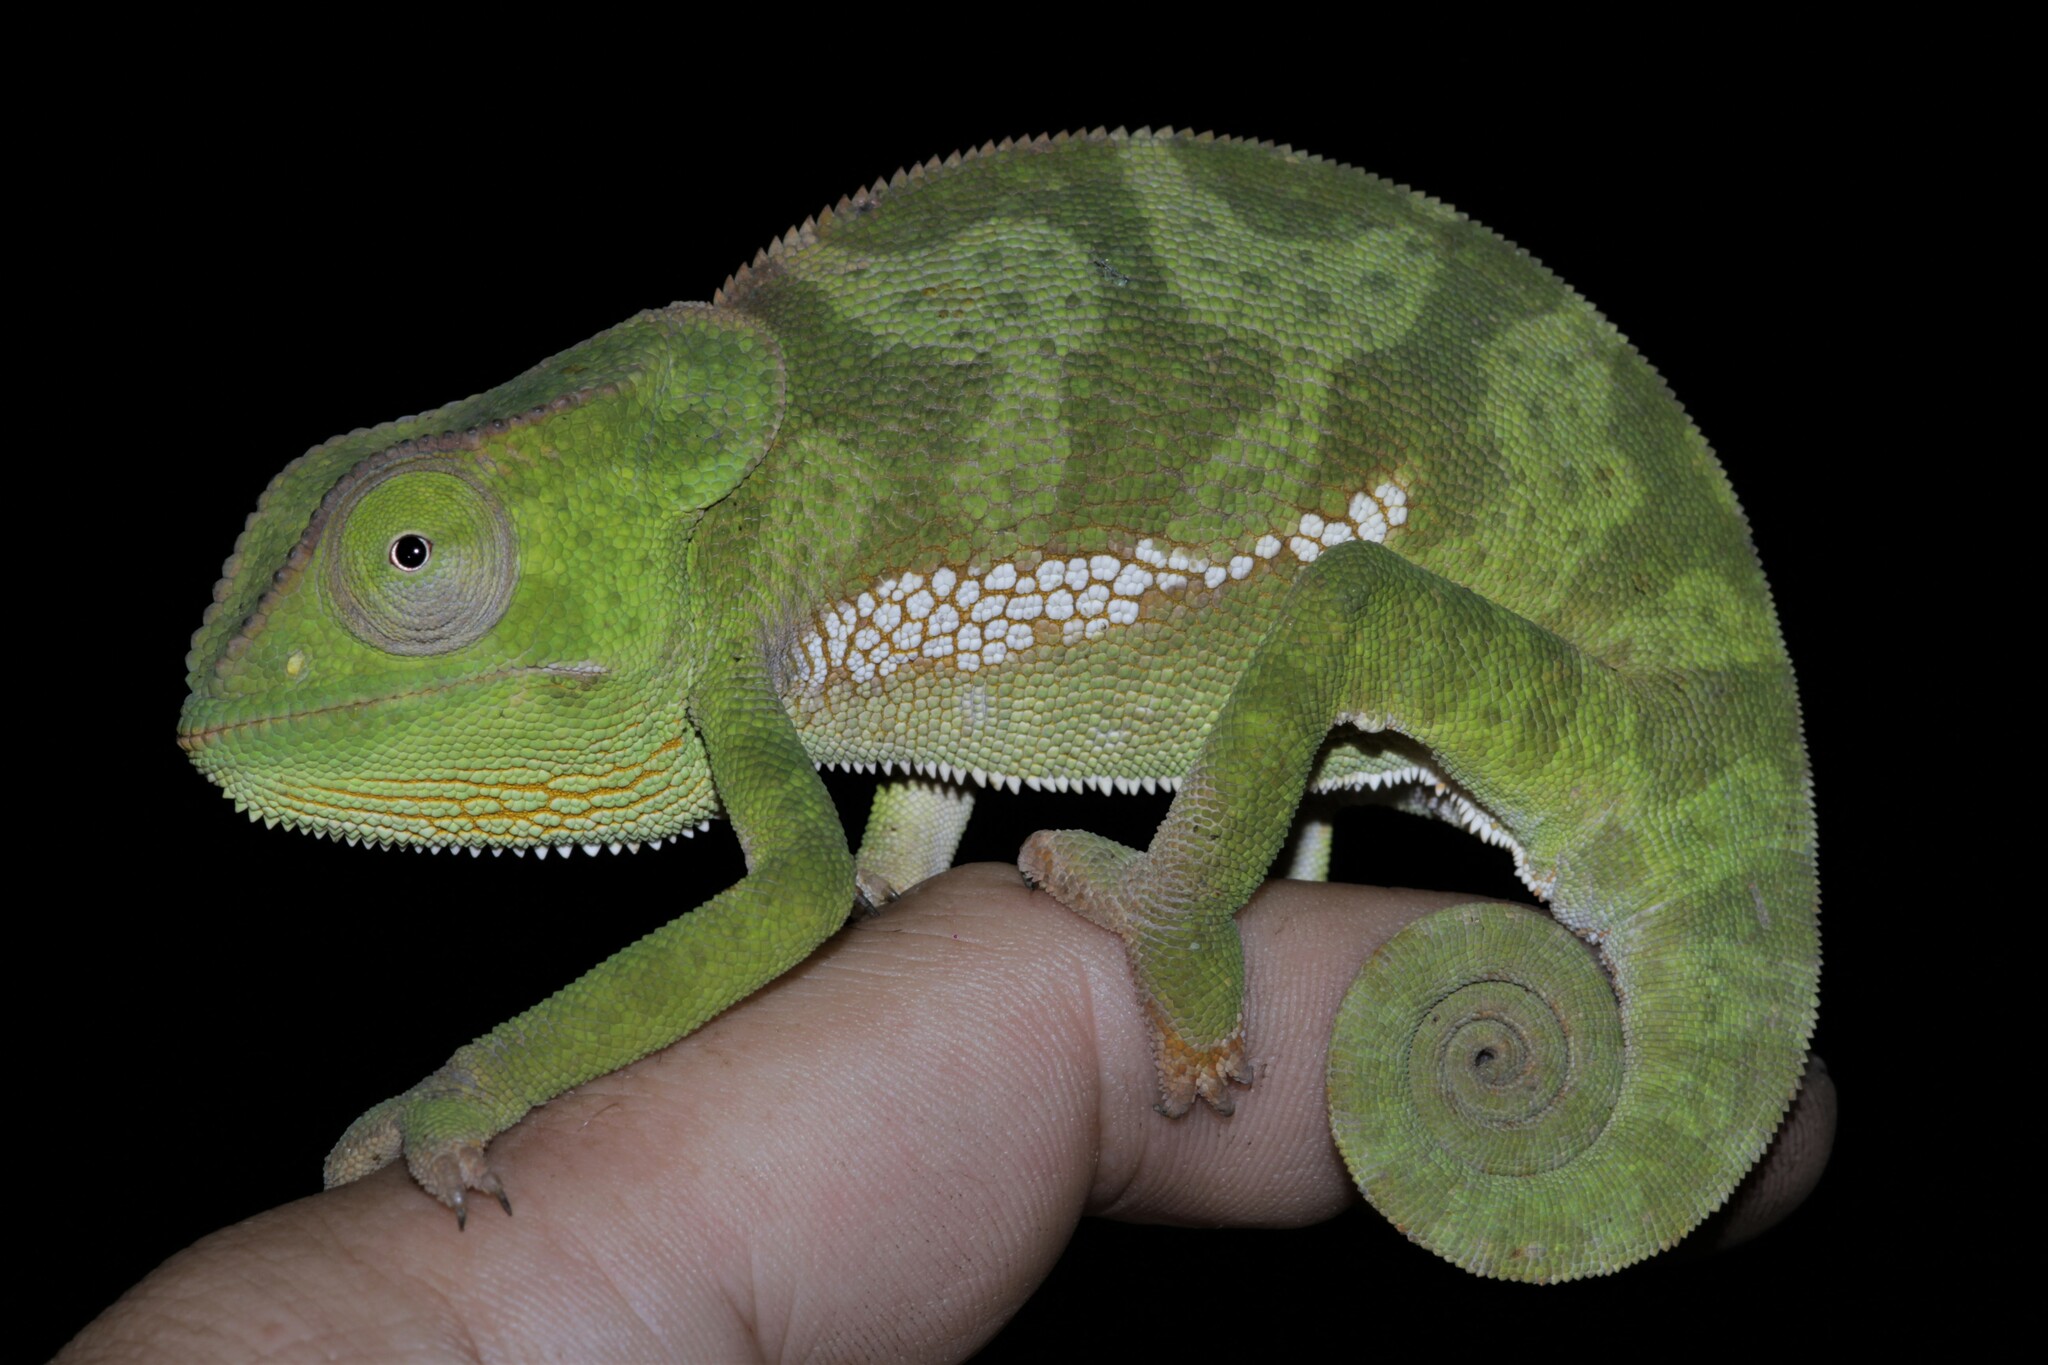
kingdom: Animalia
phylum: Chordata
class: Squamata
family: Chamaeleonidae
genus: Chamaeleo
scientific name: Chamaeleo dilepis
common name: Flapneck chameleon
